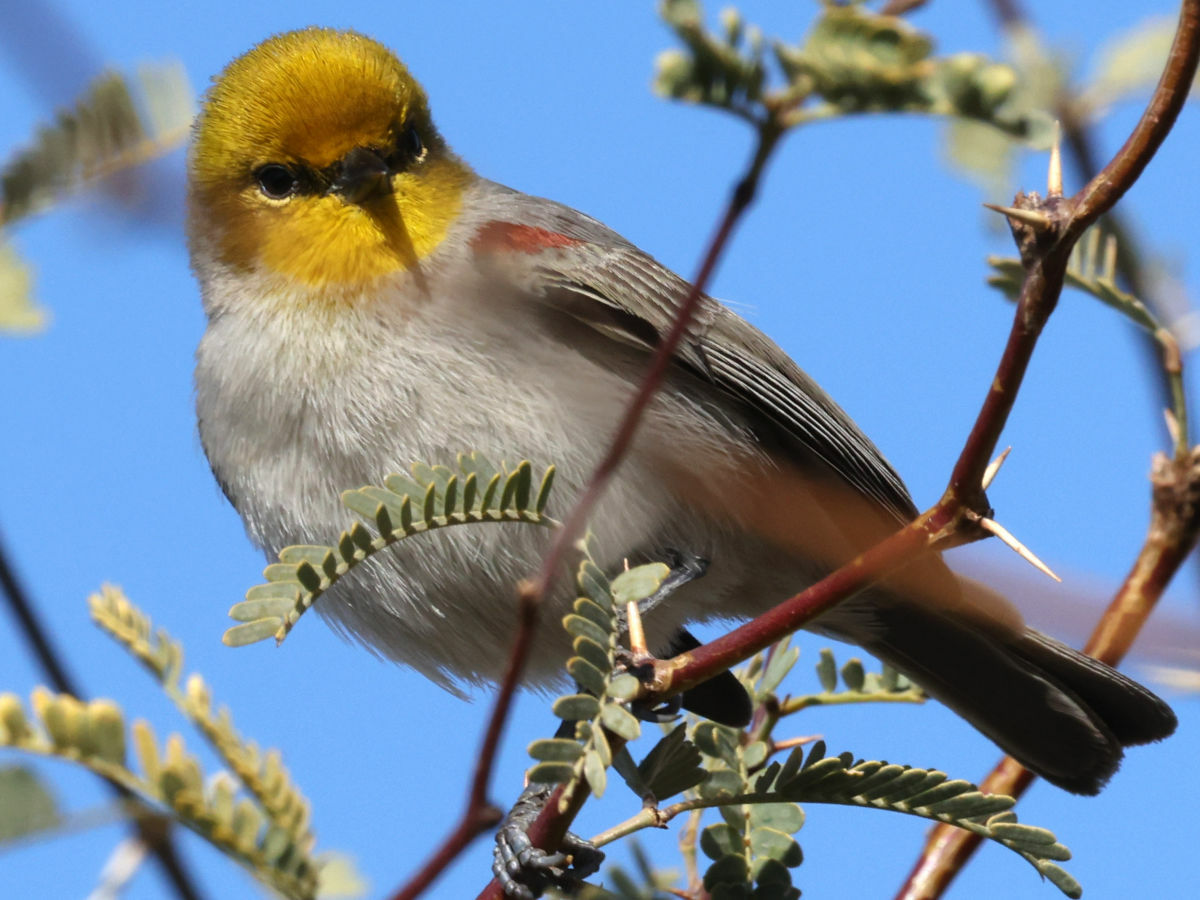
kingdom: Animalia
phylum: Chordata
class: Aves
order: Passeriformes
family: Remizidae
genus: Auriparus
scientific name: Auriparus flaviceps
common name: Verdin
